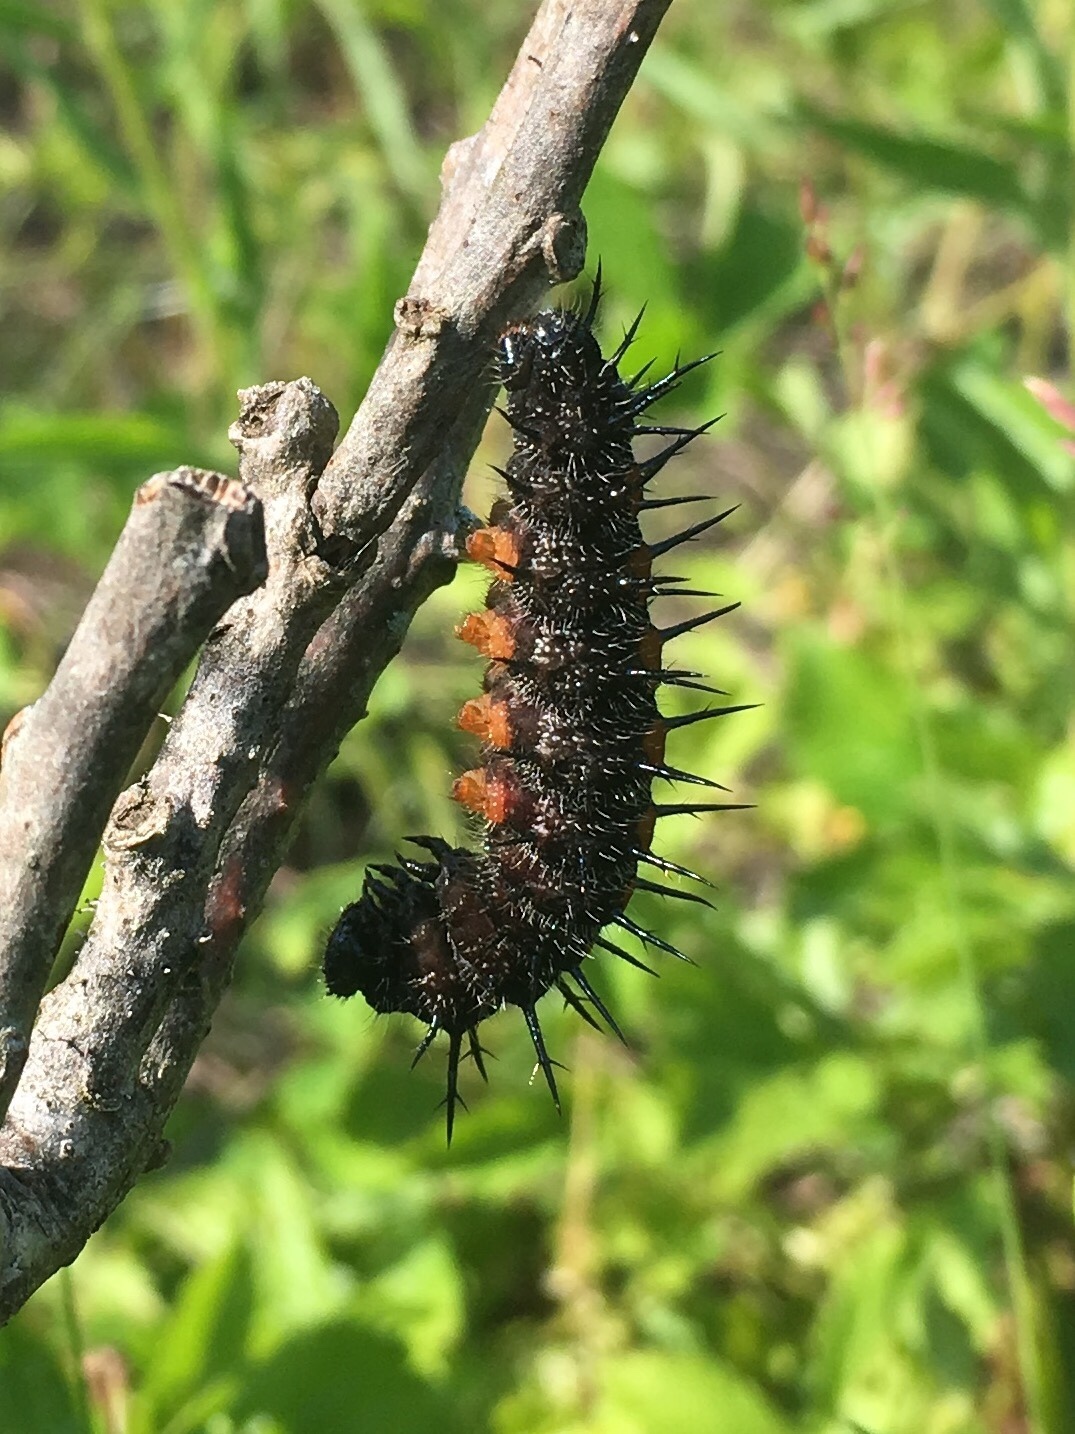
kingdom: Animalia
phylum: Arthropoda
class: Insecta
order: Lepidoptera
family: Nymphalidae
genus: Nymphalis
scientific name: Nymphalis antiopa
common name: Camberwell beauty
